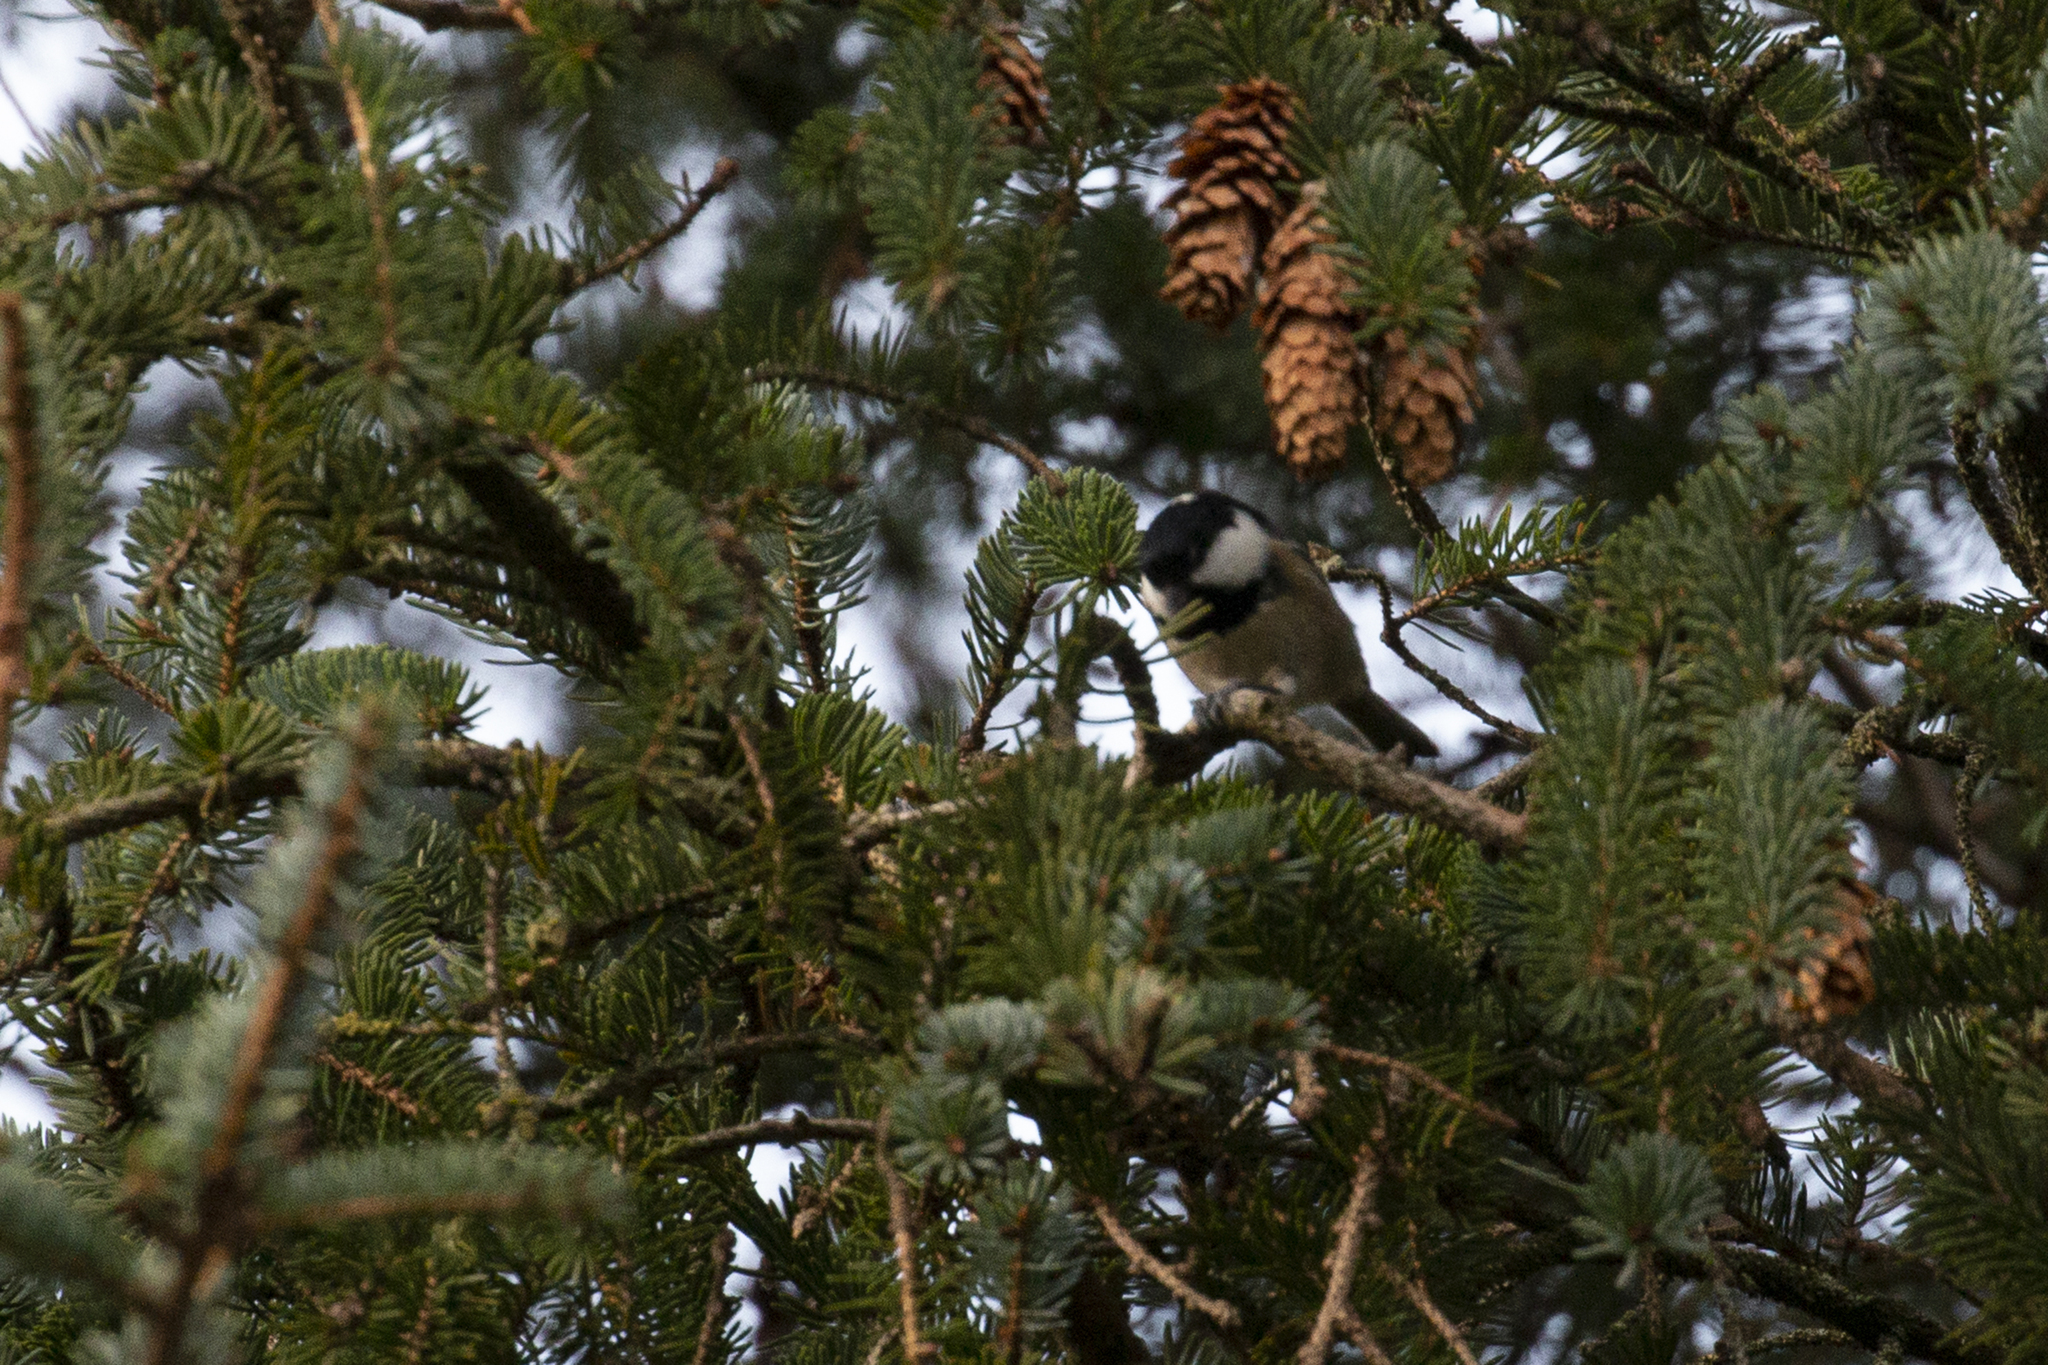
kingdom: Animalia
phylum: Chordata
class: Aves
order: Passeriformes
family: Paridae
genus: Periparus
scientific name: Periparus ater
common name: Coal tit
